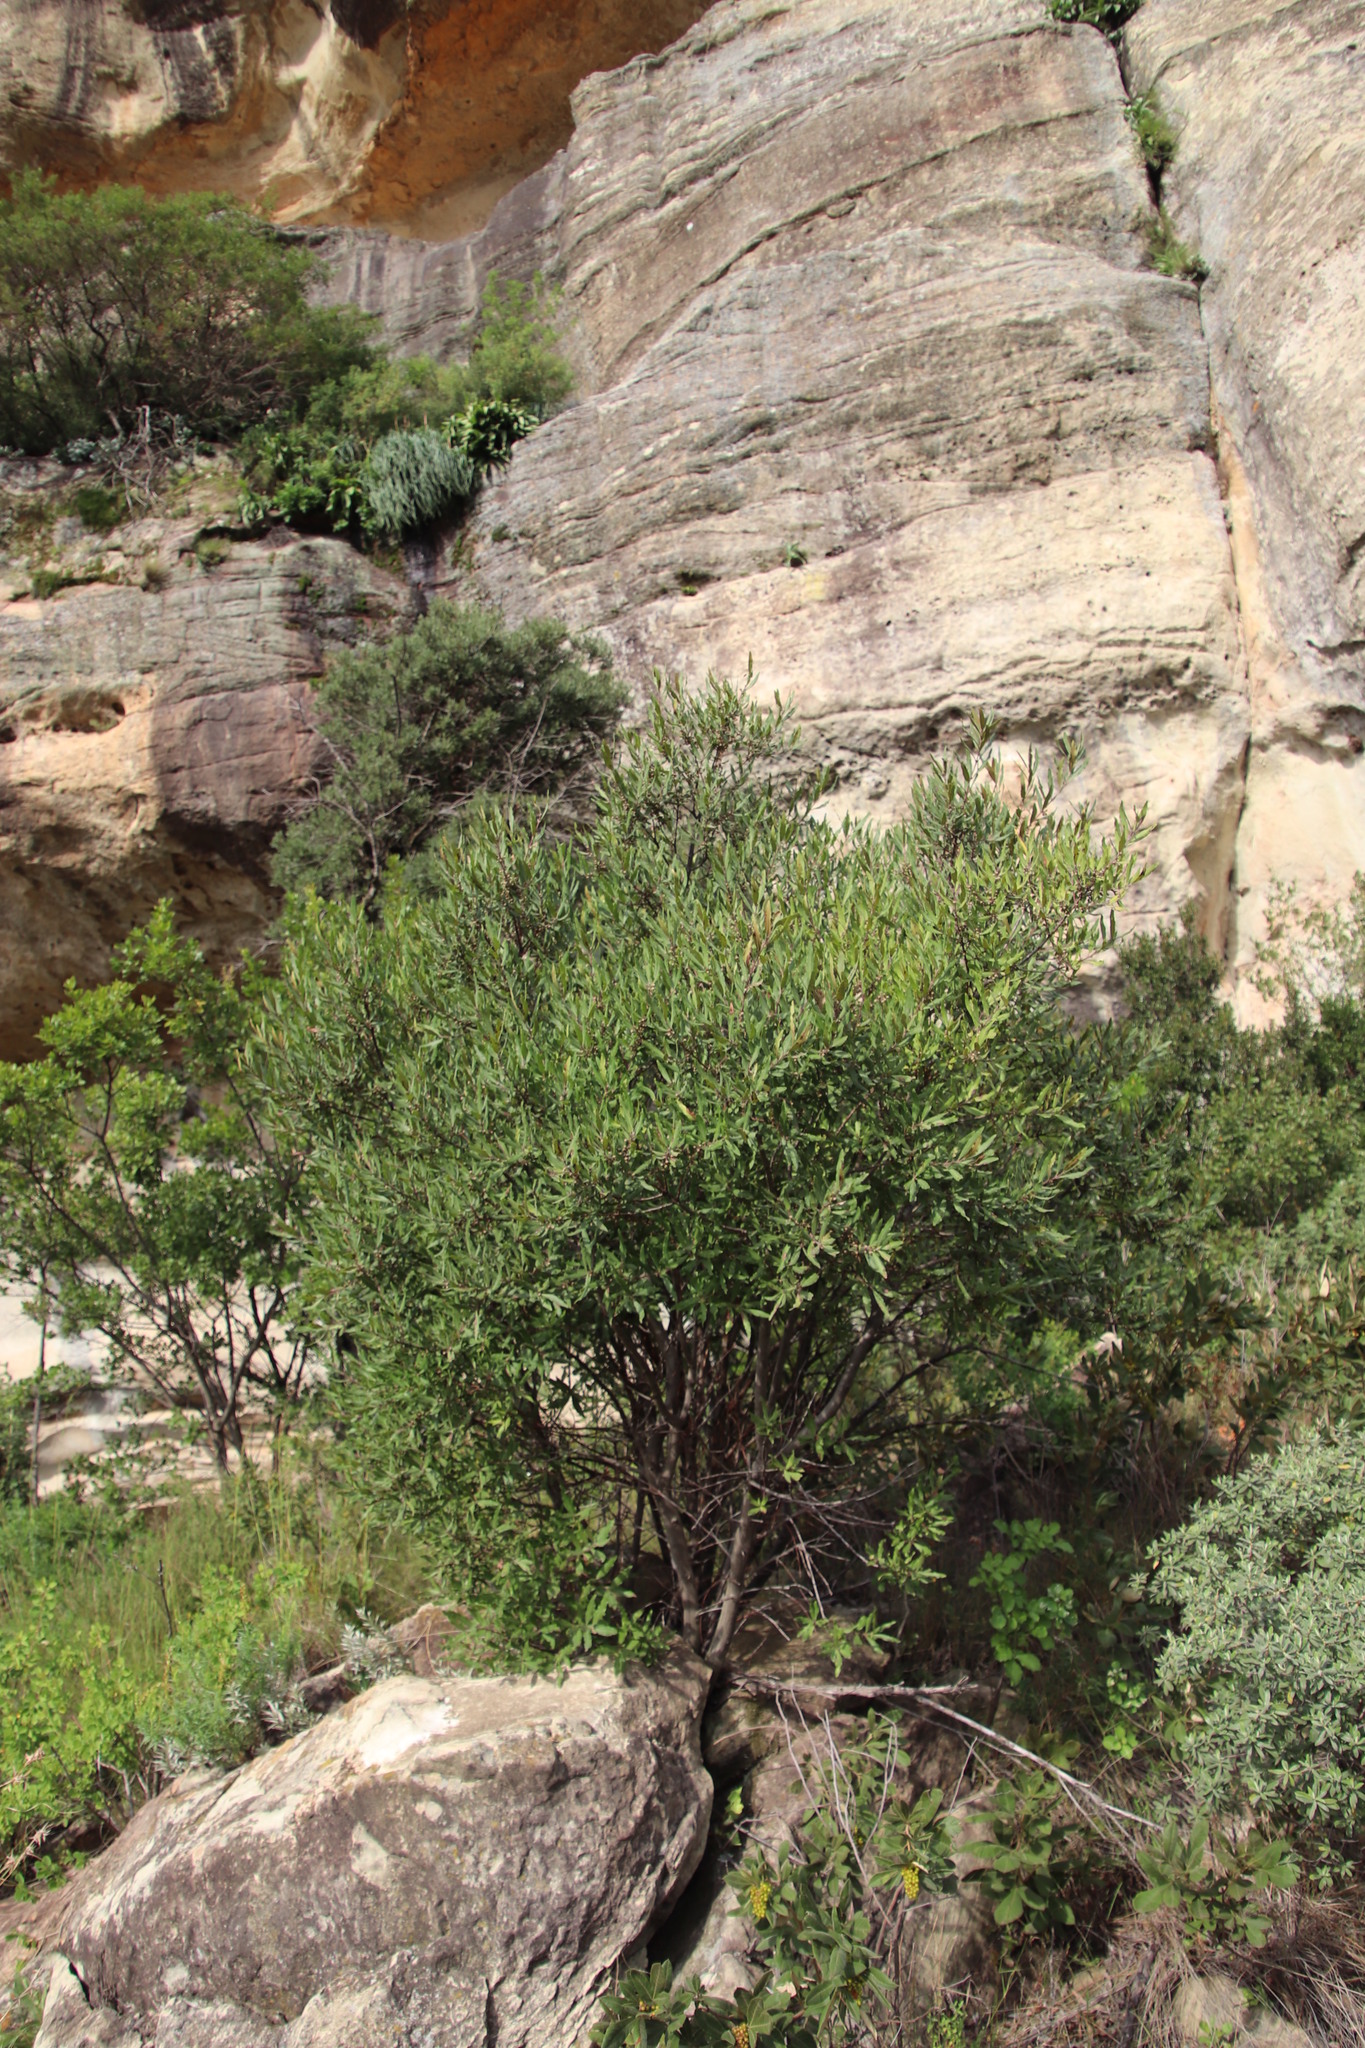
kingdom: Plantae
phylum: Tracheophyta
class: Magnoliopsida
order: Ericales
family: Ebenaceae
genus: Euclea
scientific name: Euclea crispa
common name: Blue guarri
